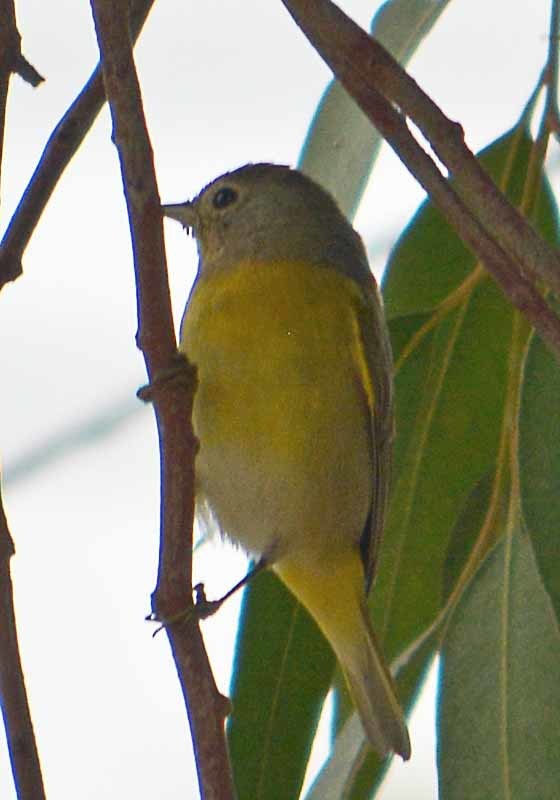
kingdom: Animalia
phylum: Chordata
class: Aves
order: Passeriformes
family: Parulidae
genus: Leiothlypis
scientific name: Leiothlypis ruficapilla
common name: Nashville warbler
